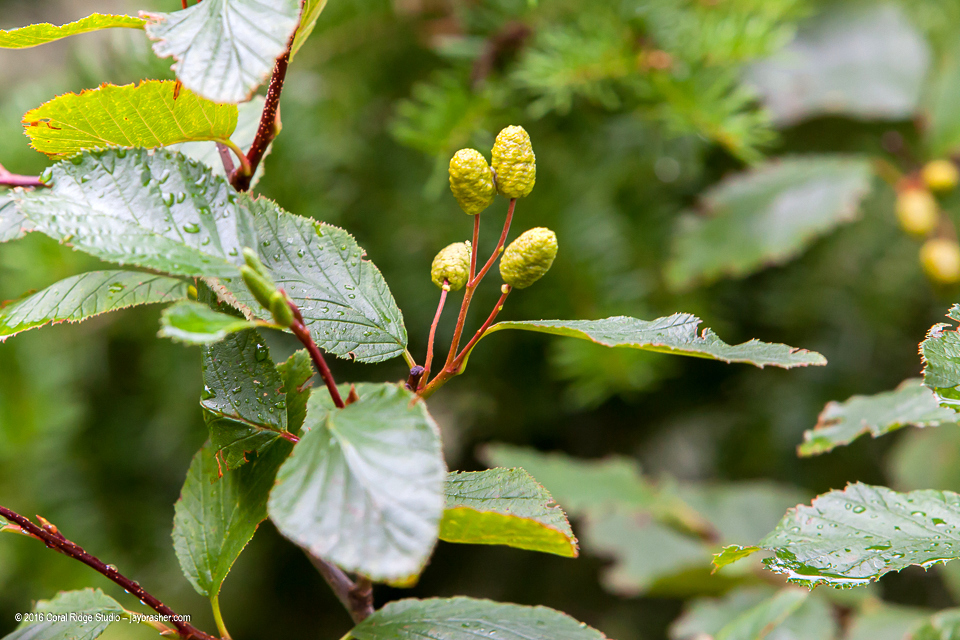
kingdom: Plantae
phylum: Tracheophyta
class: Magnoliopsida
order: Fagales
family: Betulaceae
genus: Alnus
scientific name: Alnus alnobetula
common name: Green alder
